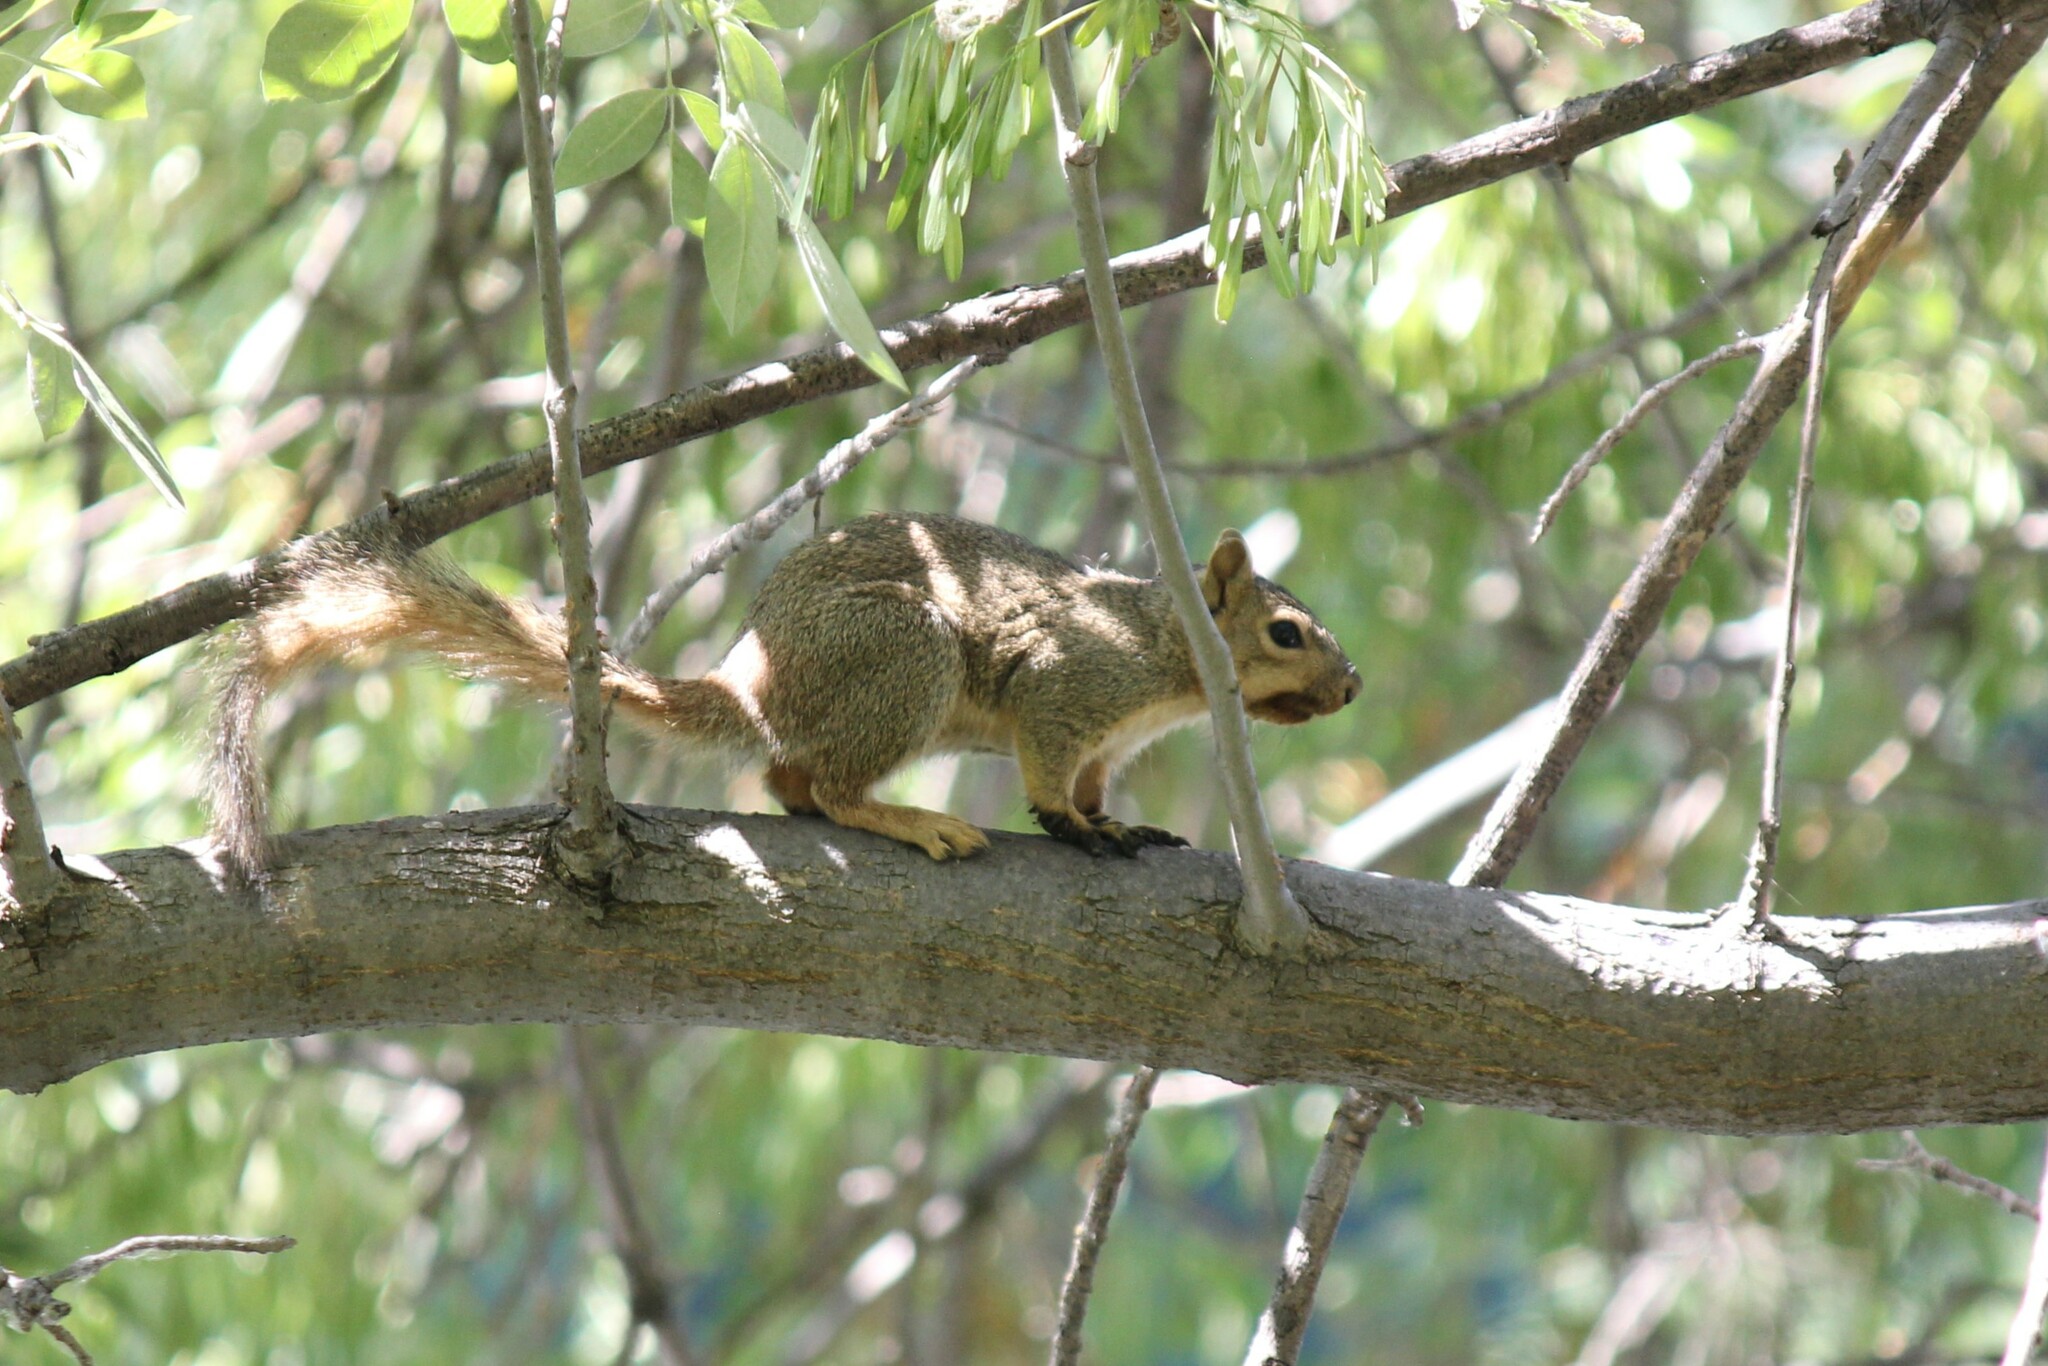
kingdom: Animalia
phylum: Chordata
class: Mammalia
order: Rodentia
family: Sciuridae
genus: Sciurus
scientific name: Sciurus niger
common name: Fox squirrel
